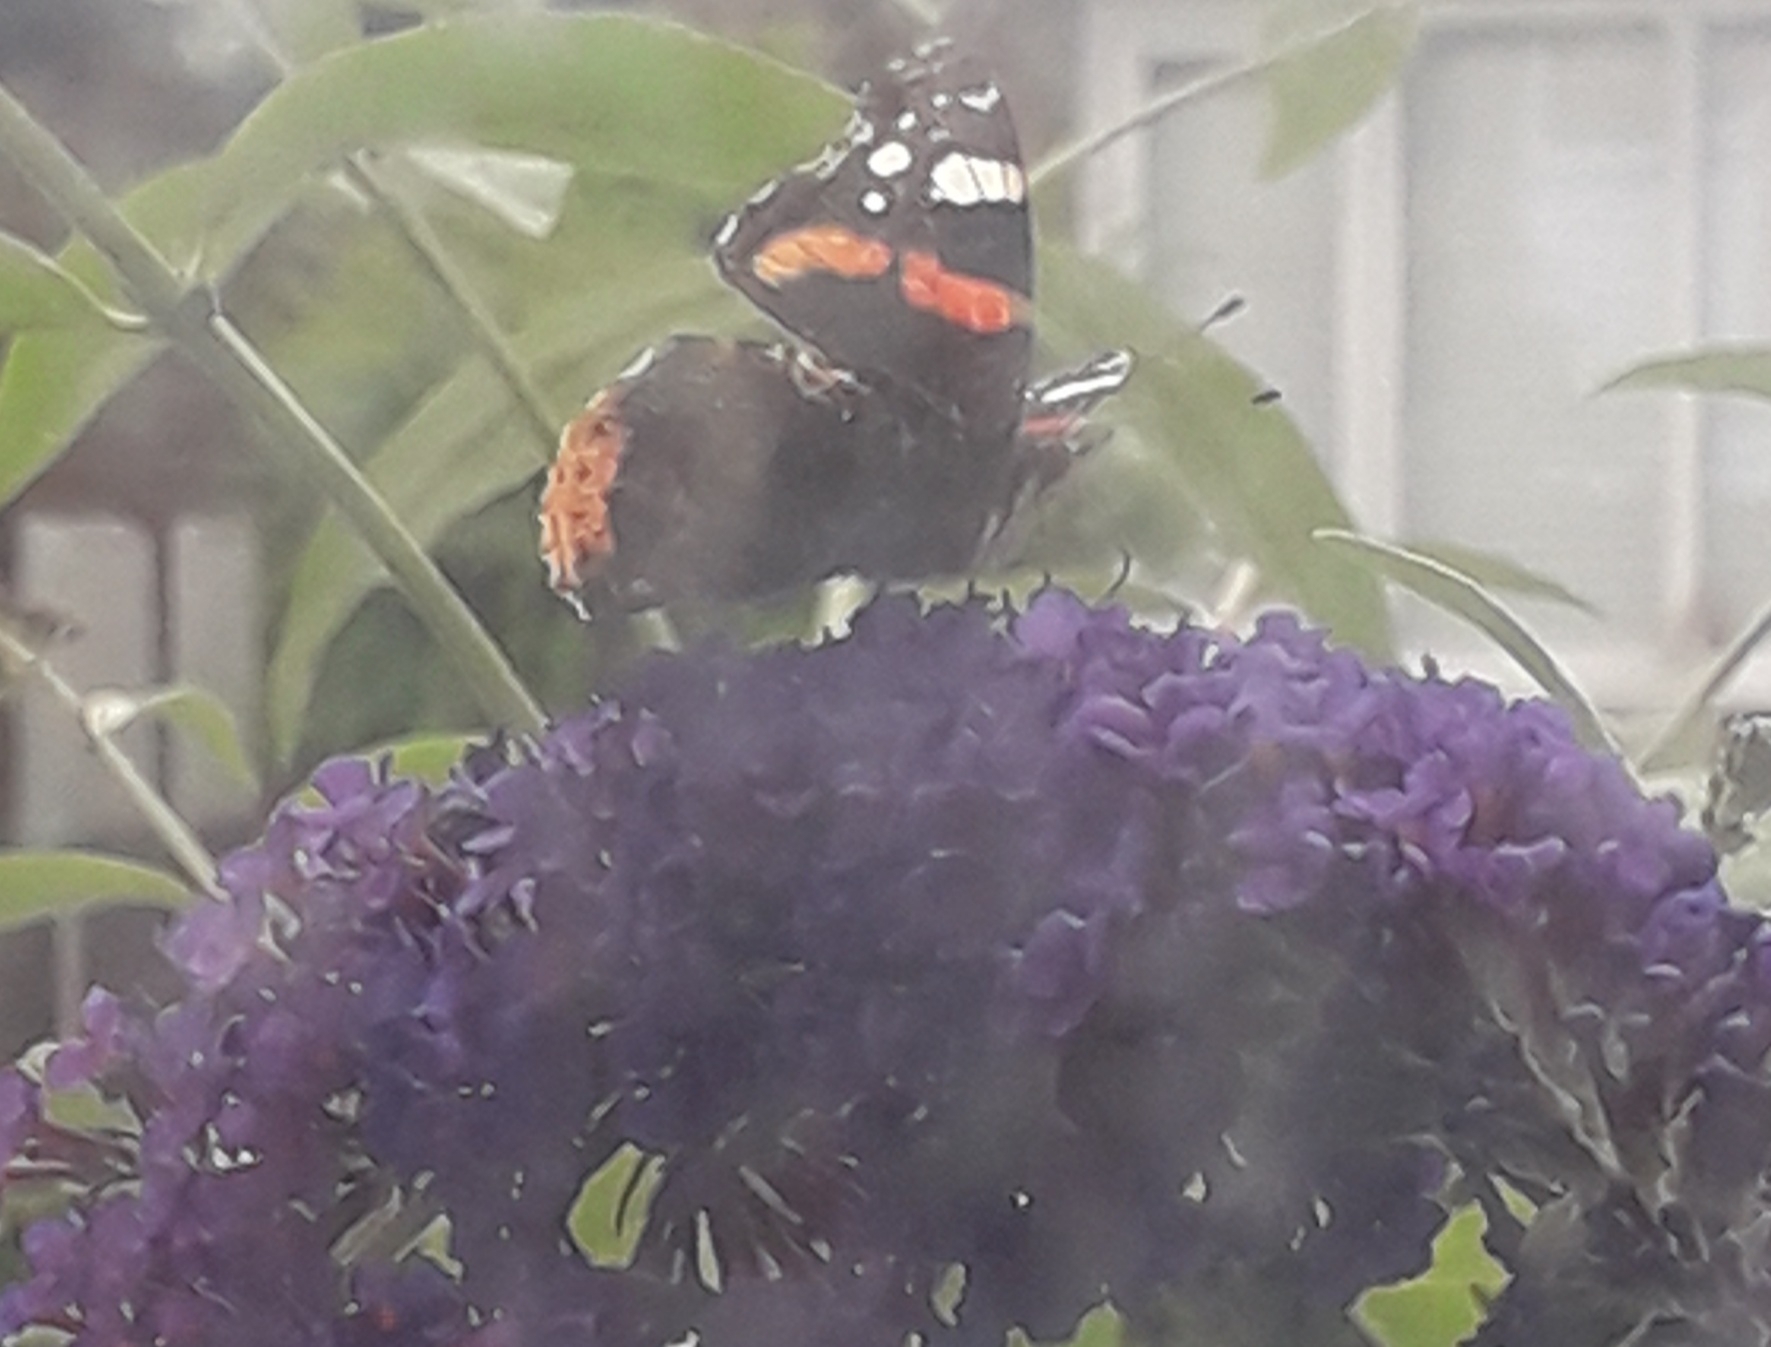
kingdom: Animalia
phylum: Arthropoda
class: Insecta
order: Lepidoptera
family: Nymphalidae
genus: Vanessa
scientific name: Vanessa atalanta
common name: Red admiral
